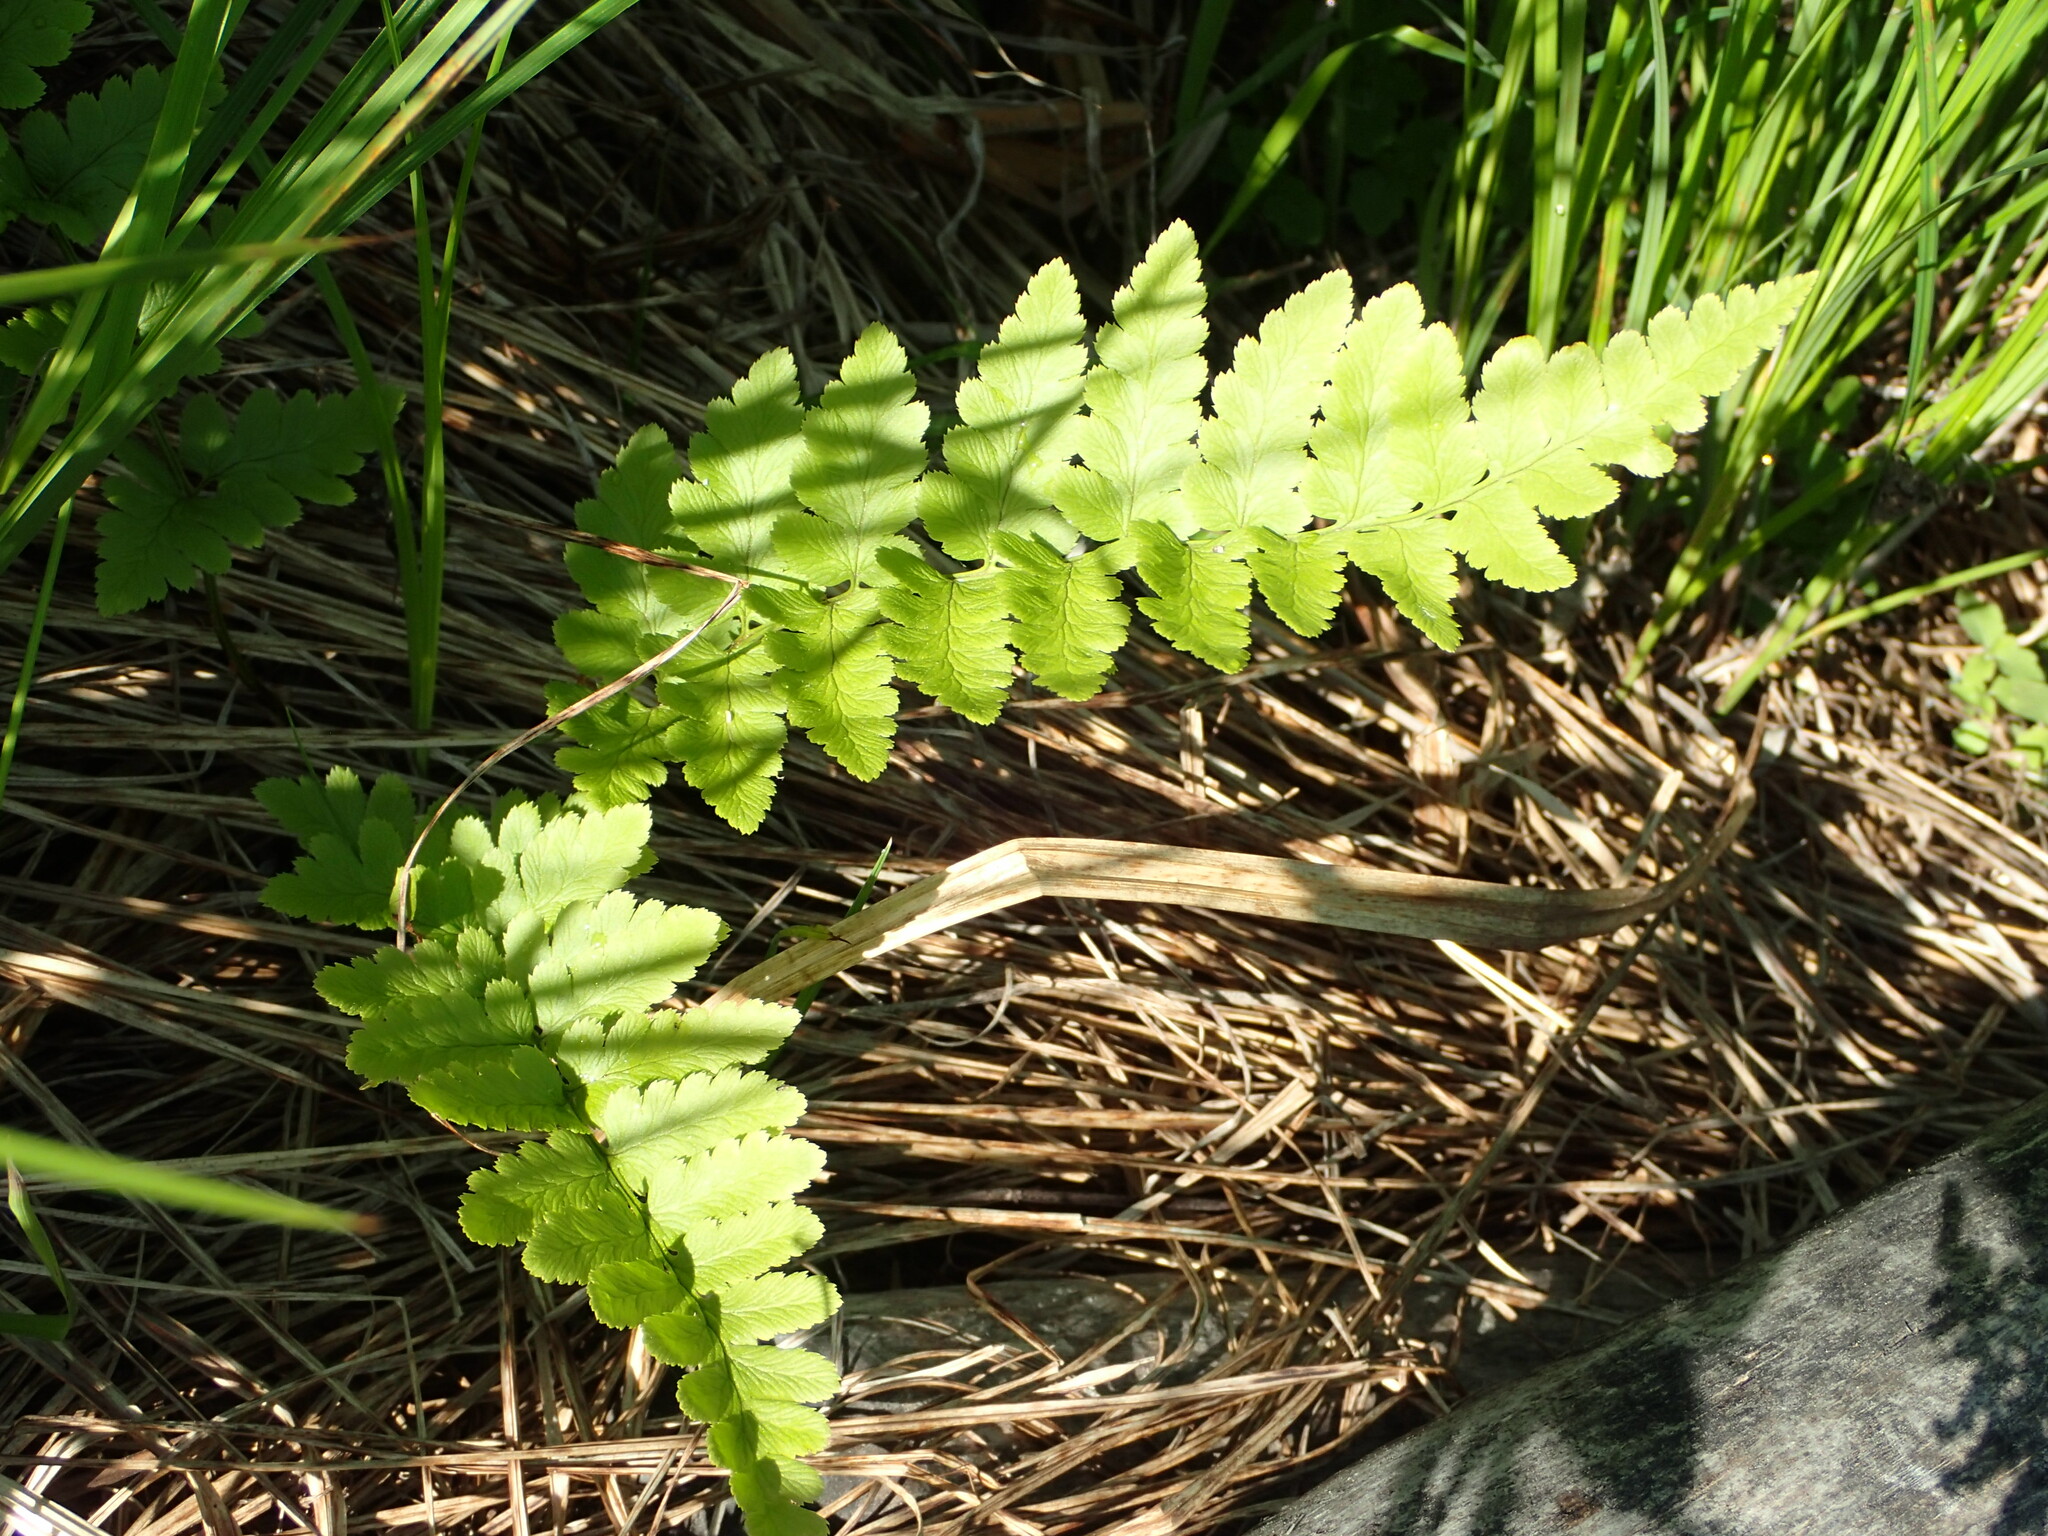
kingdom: Plantae
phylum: Tracheophyta
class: Polypodiopsida
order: Polypodiales
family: Dryopteridaceae
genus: Dryopteris
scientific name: Dryopteris cristata
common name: Crested wood fern
